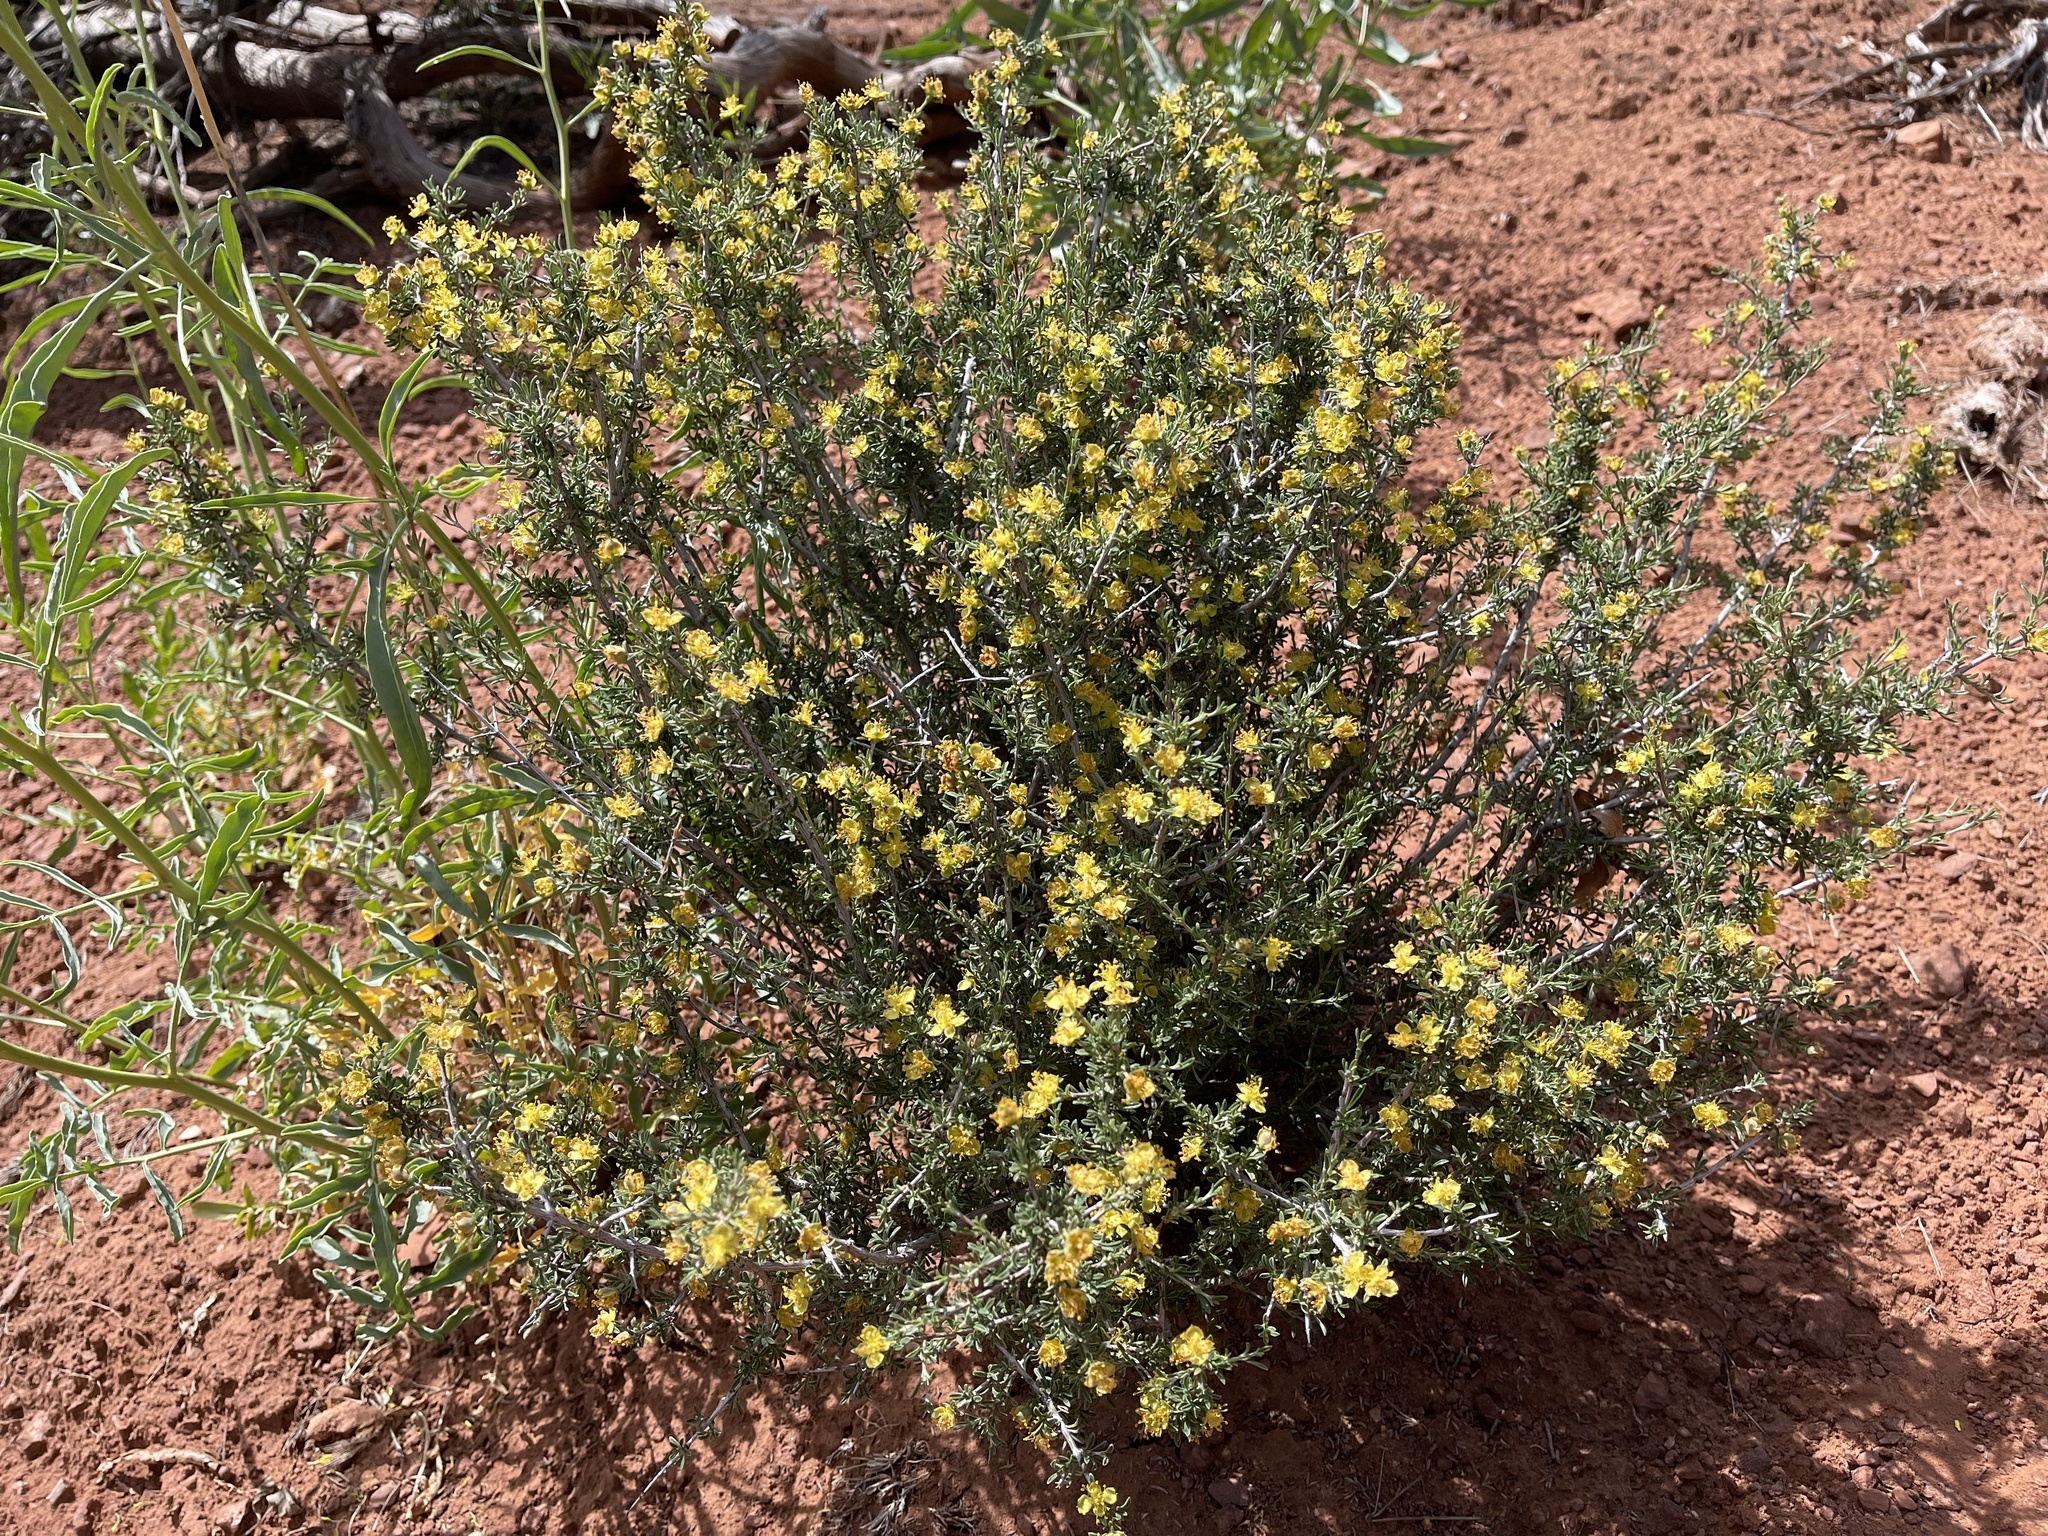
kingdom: Plantae
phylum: Tracheophyta
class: Magnoliopsida
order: Rosales
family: Rosaceae
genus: Coleogyne
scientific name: Coleogyne ramosissima
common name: Blackbrush
